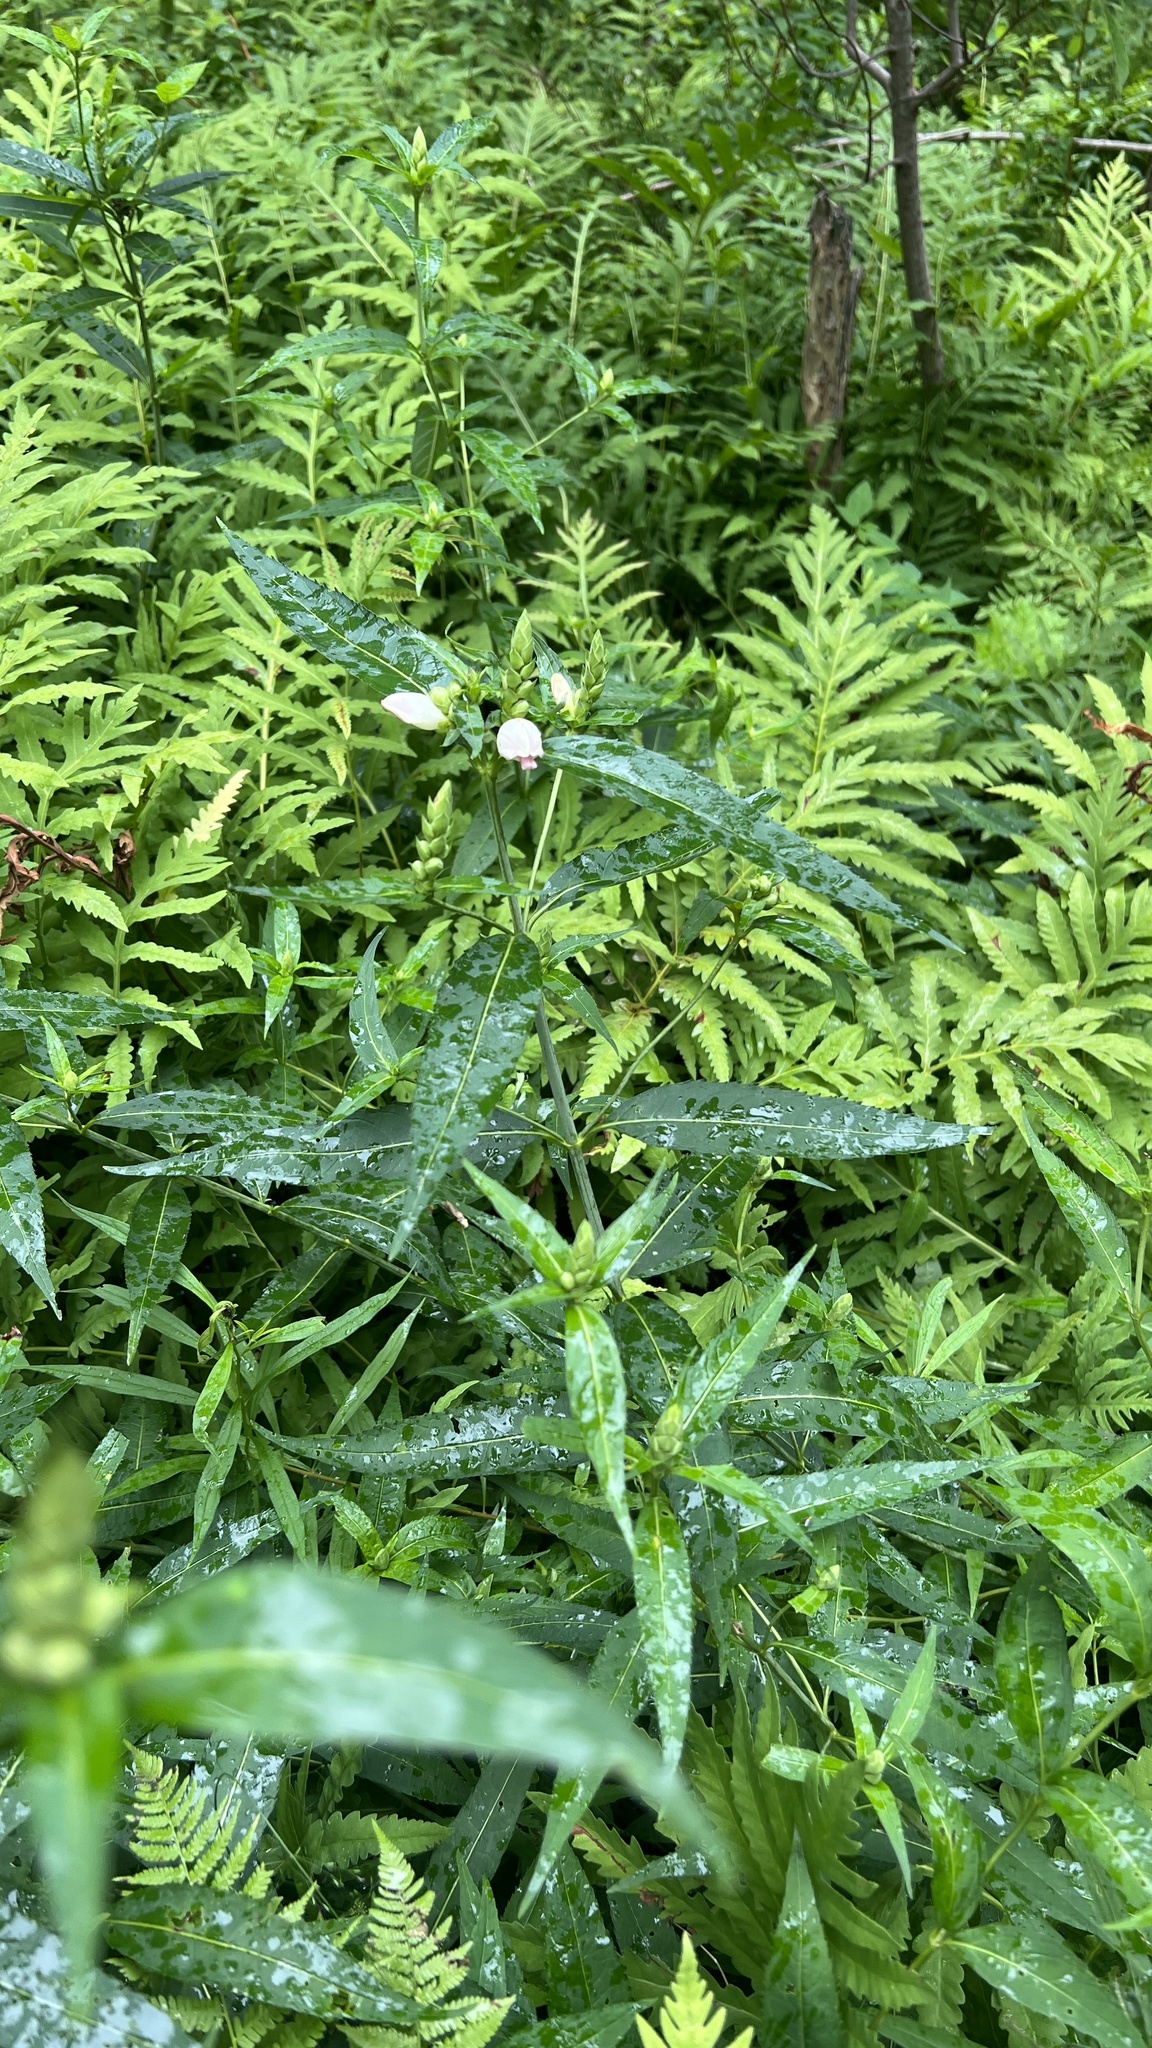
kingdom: Plantae
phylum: Tracheophyta
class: Magnoliopsida
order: Lamiales
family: Plantaginaceae
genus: Chelone
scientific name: Chelone glabra
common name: Snakehead
